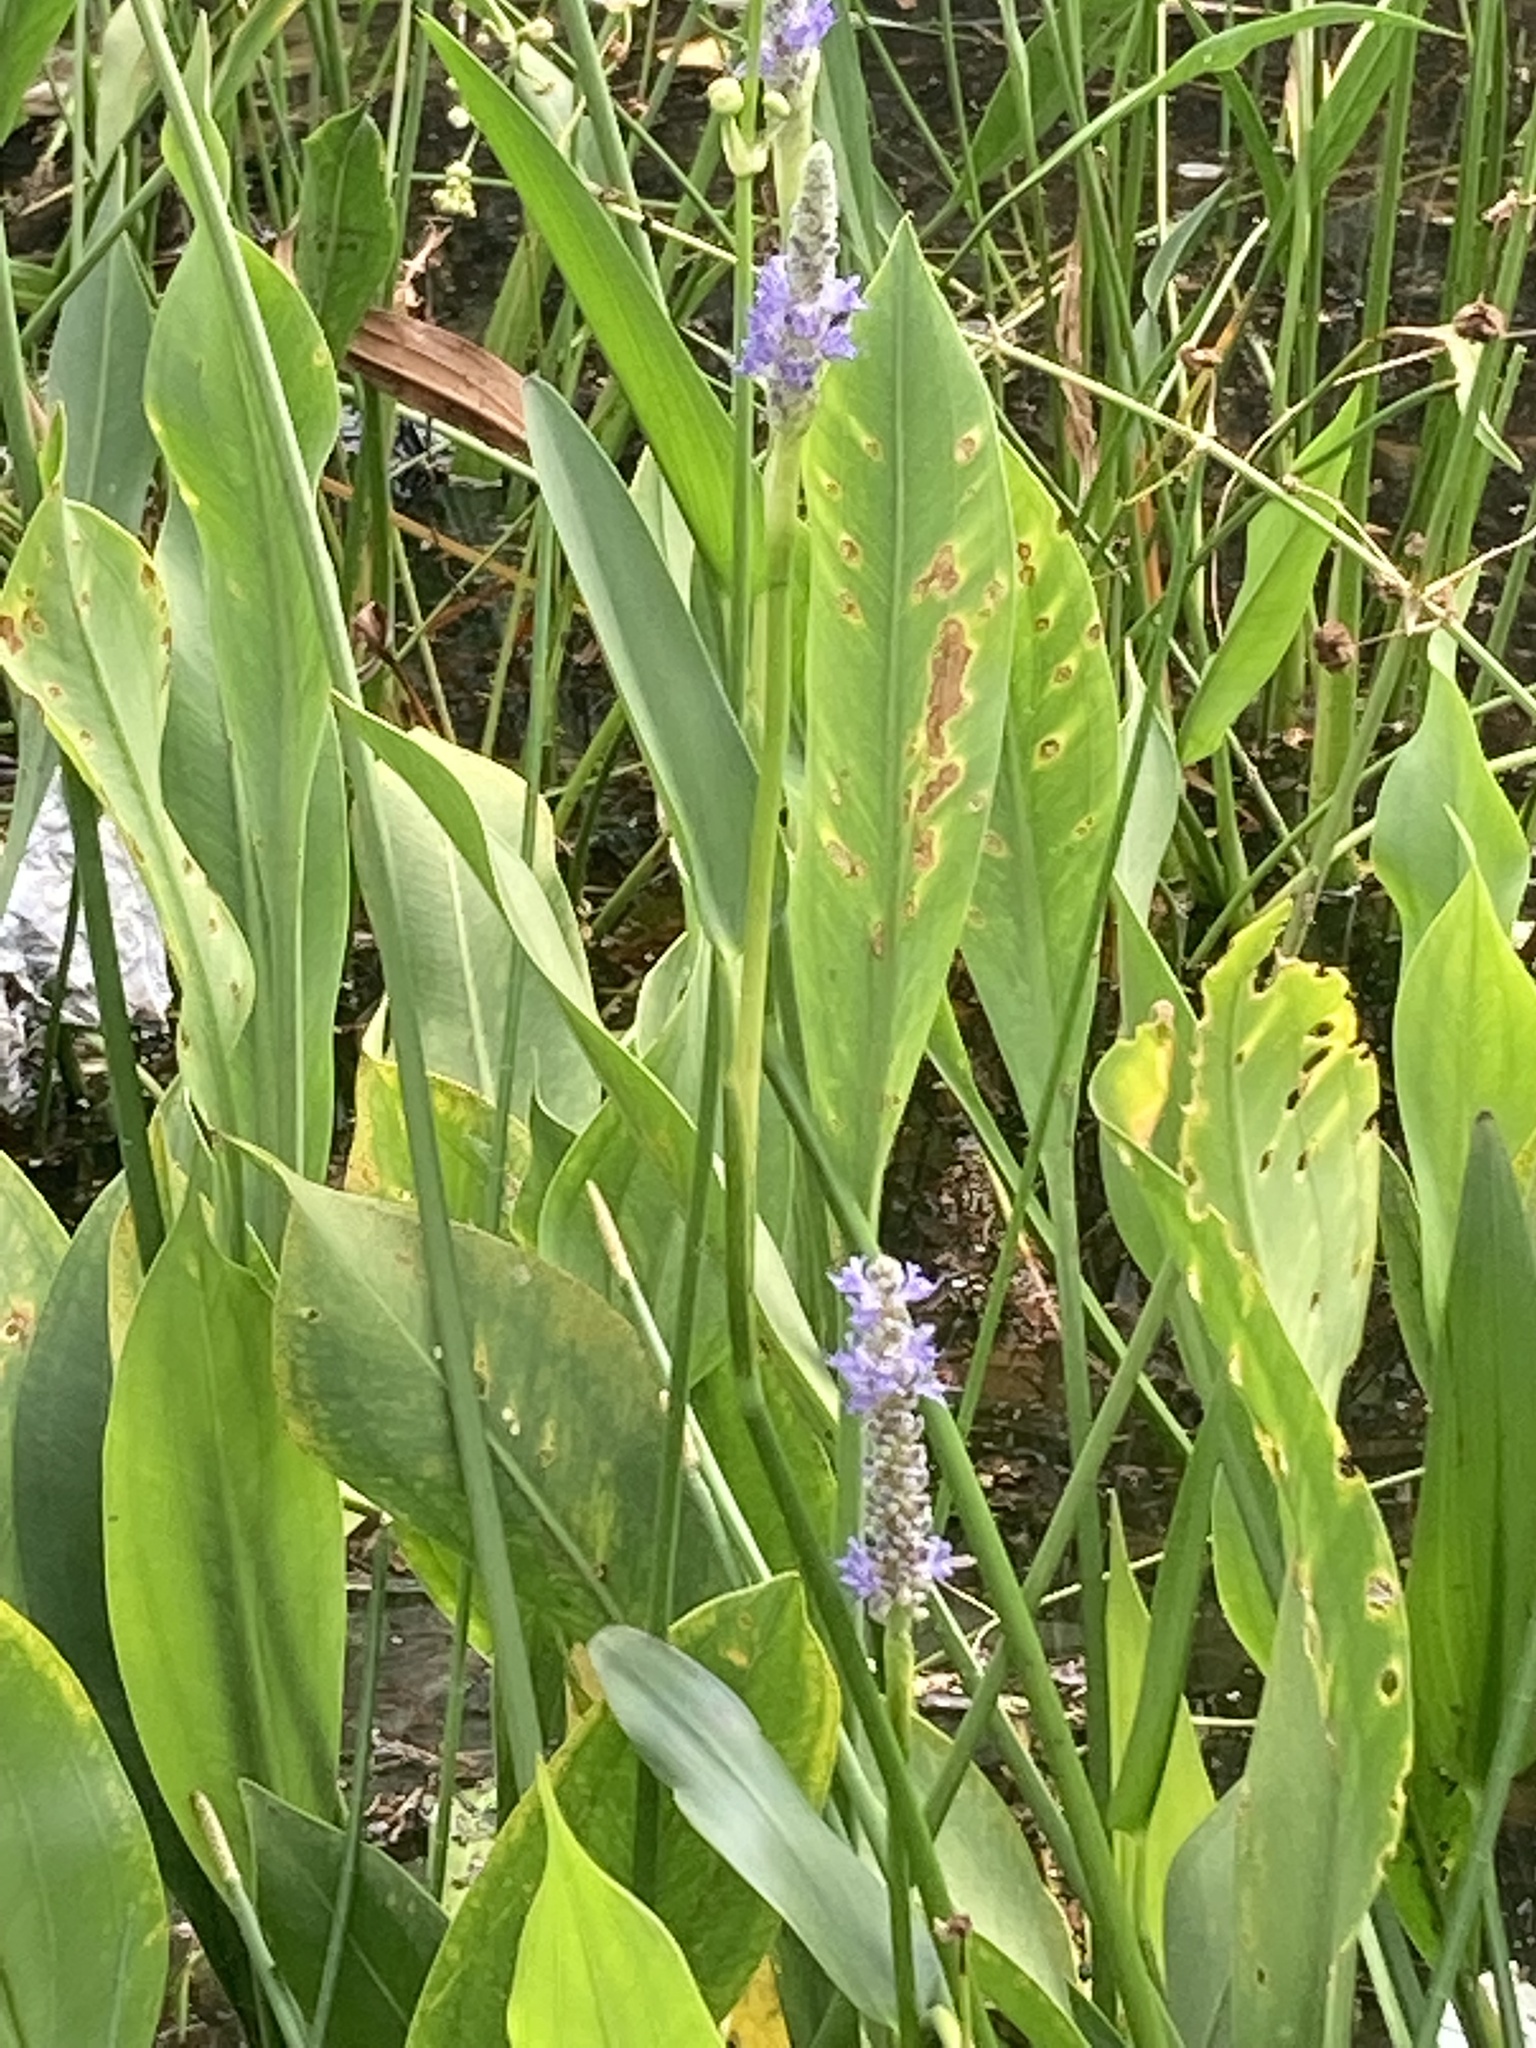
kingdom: Plantae
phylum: Tracheophyta
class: Liliopsida
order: Commelinales
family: Pontederiaceae
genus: Pontederia
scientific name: Pontederia cordata
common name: Pickerelweed
